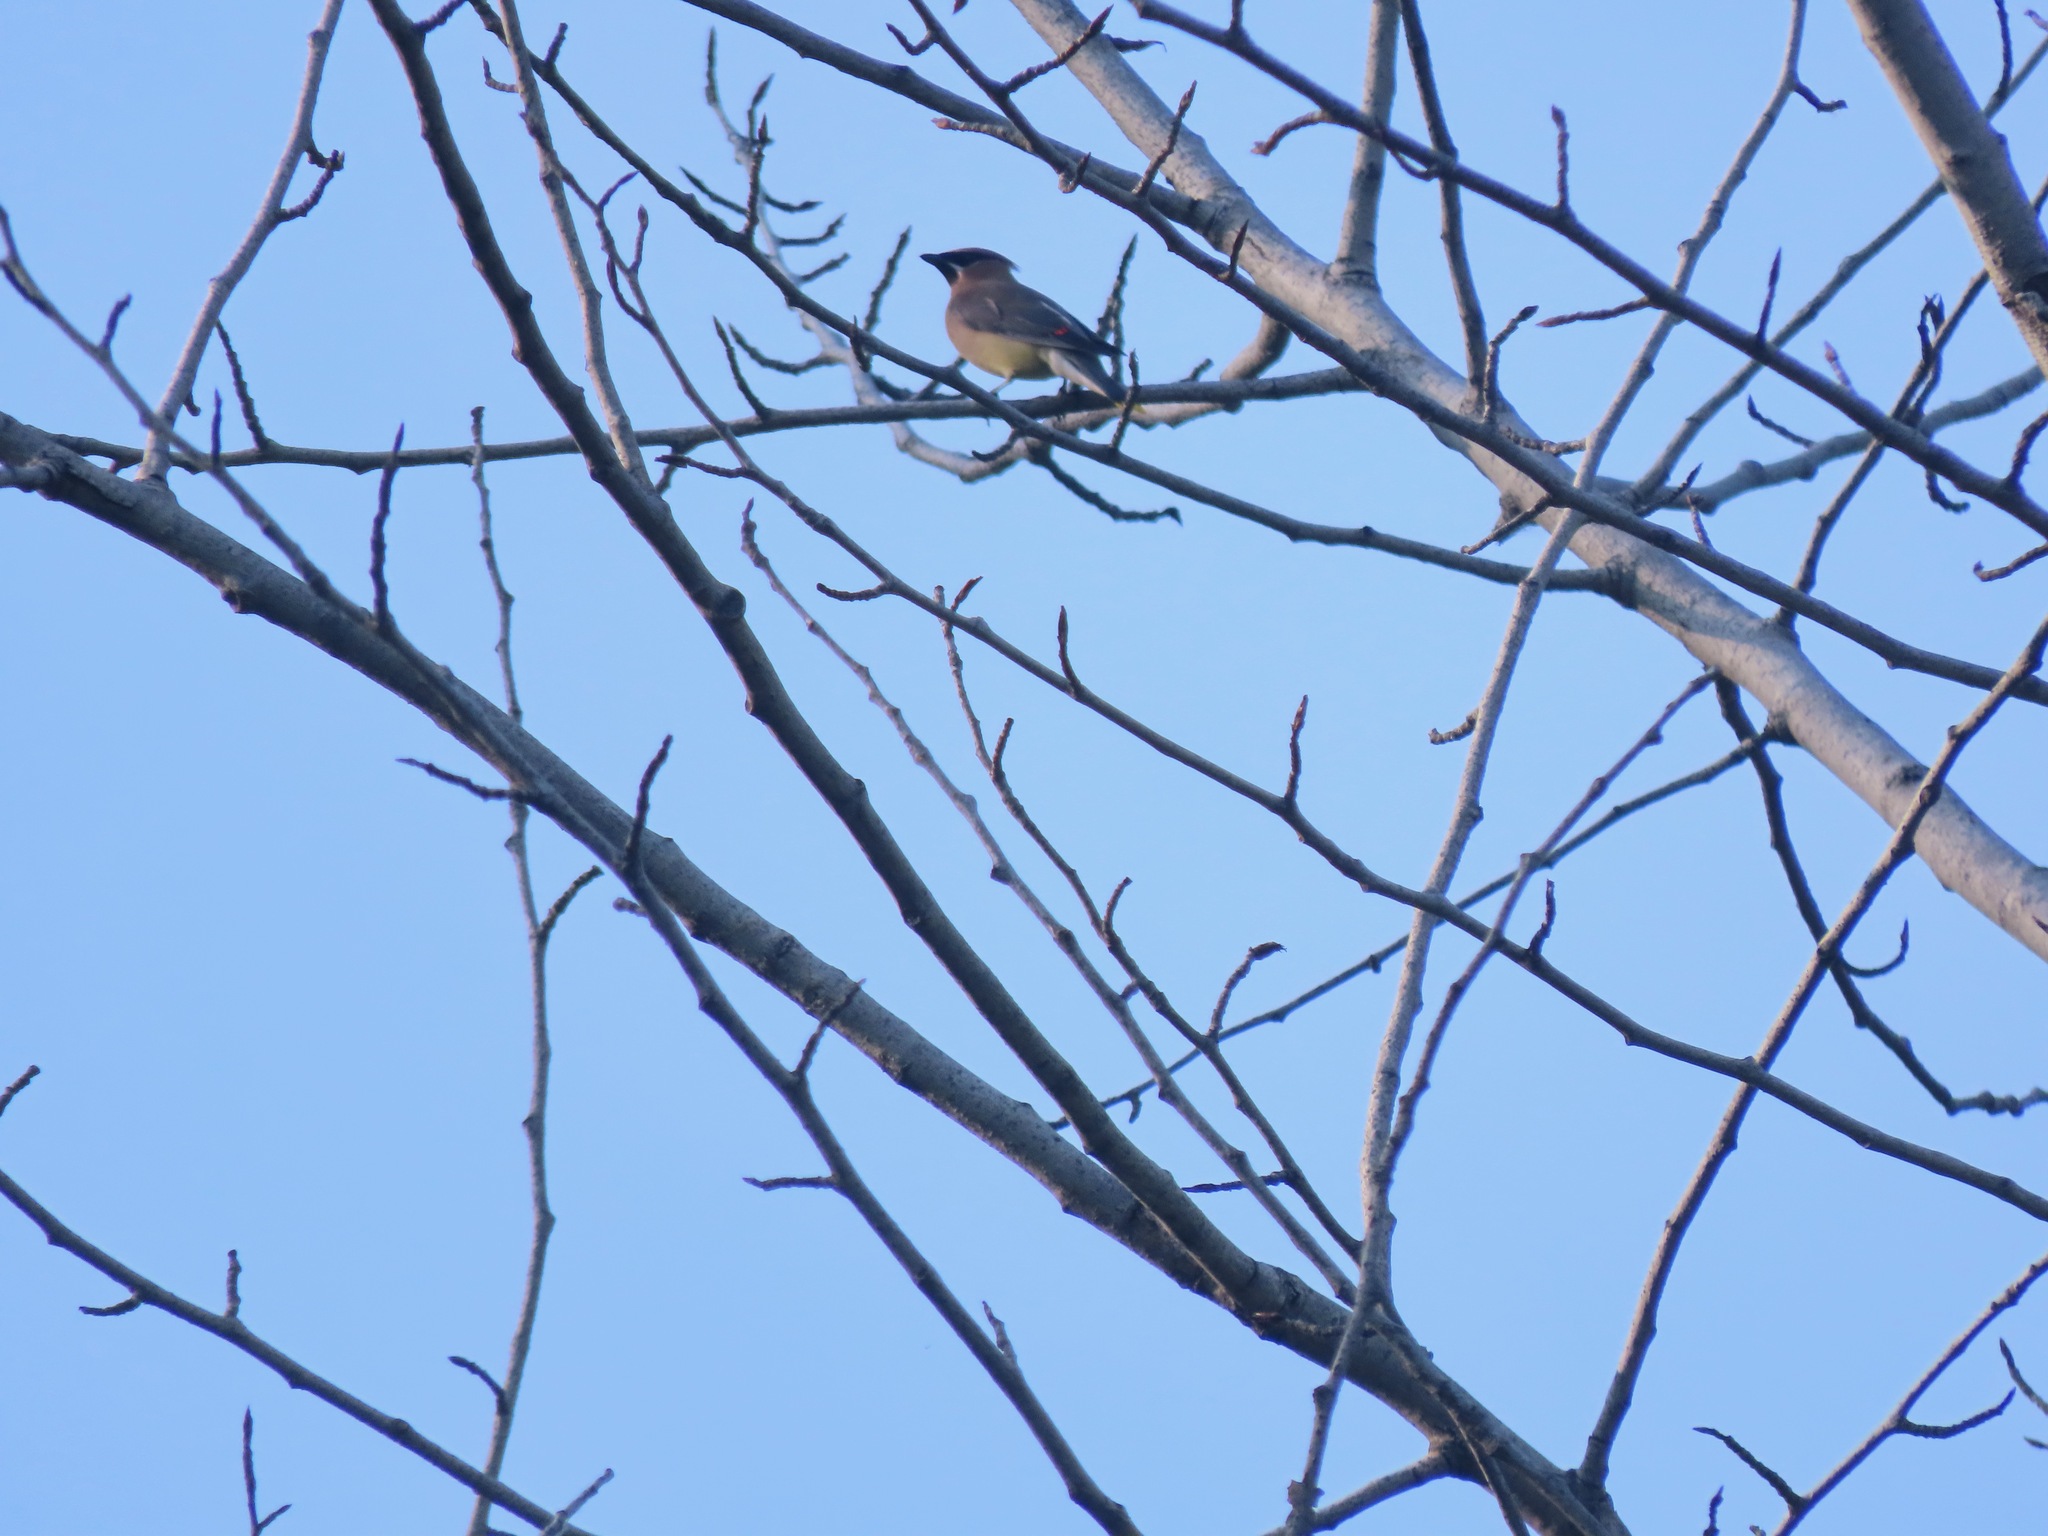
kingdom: Animalia
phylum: Chordata
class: Aves
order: Passeriformes
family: Bombycillidae
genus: Bombycilla
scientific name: Bombycilla cedrorum
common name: Cedar waxwing
